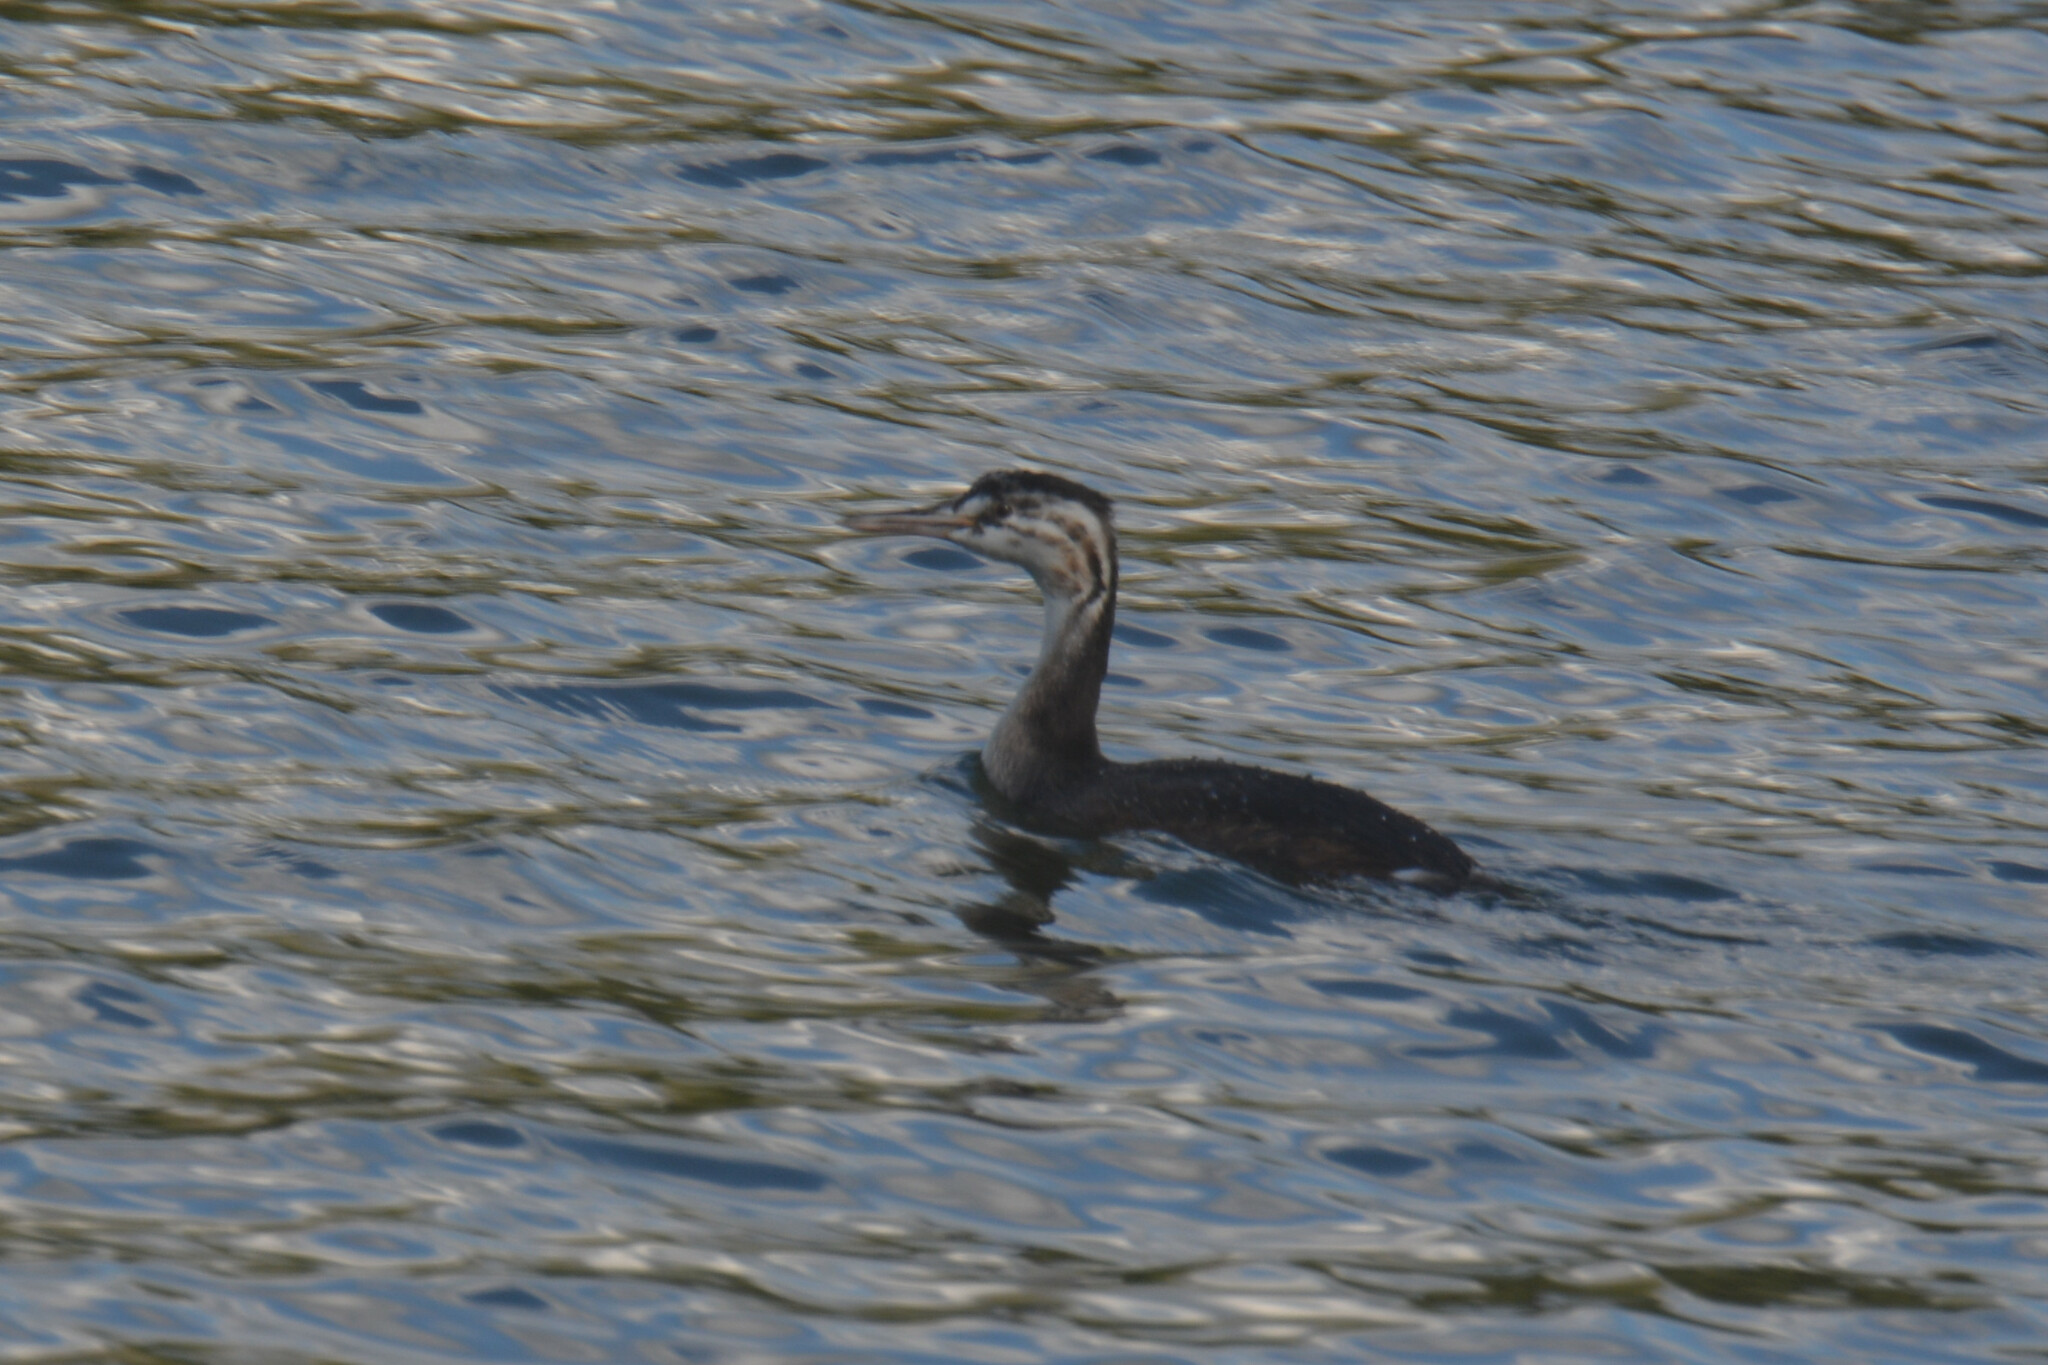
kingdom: Animalia
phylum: Chordata
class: Aves
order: Podicipediformes
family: Podicipedidae
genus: Podiceps
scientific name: Podiceps cristatus
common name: Great crested grebe
